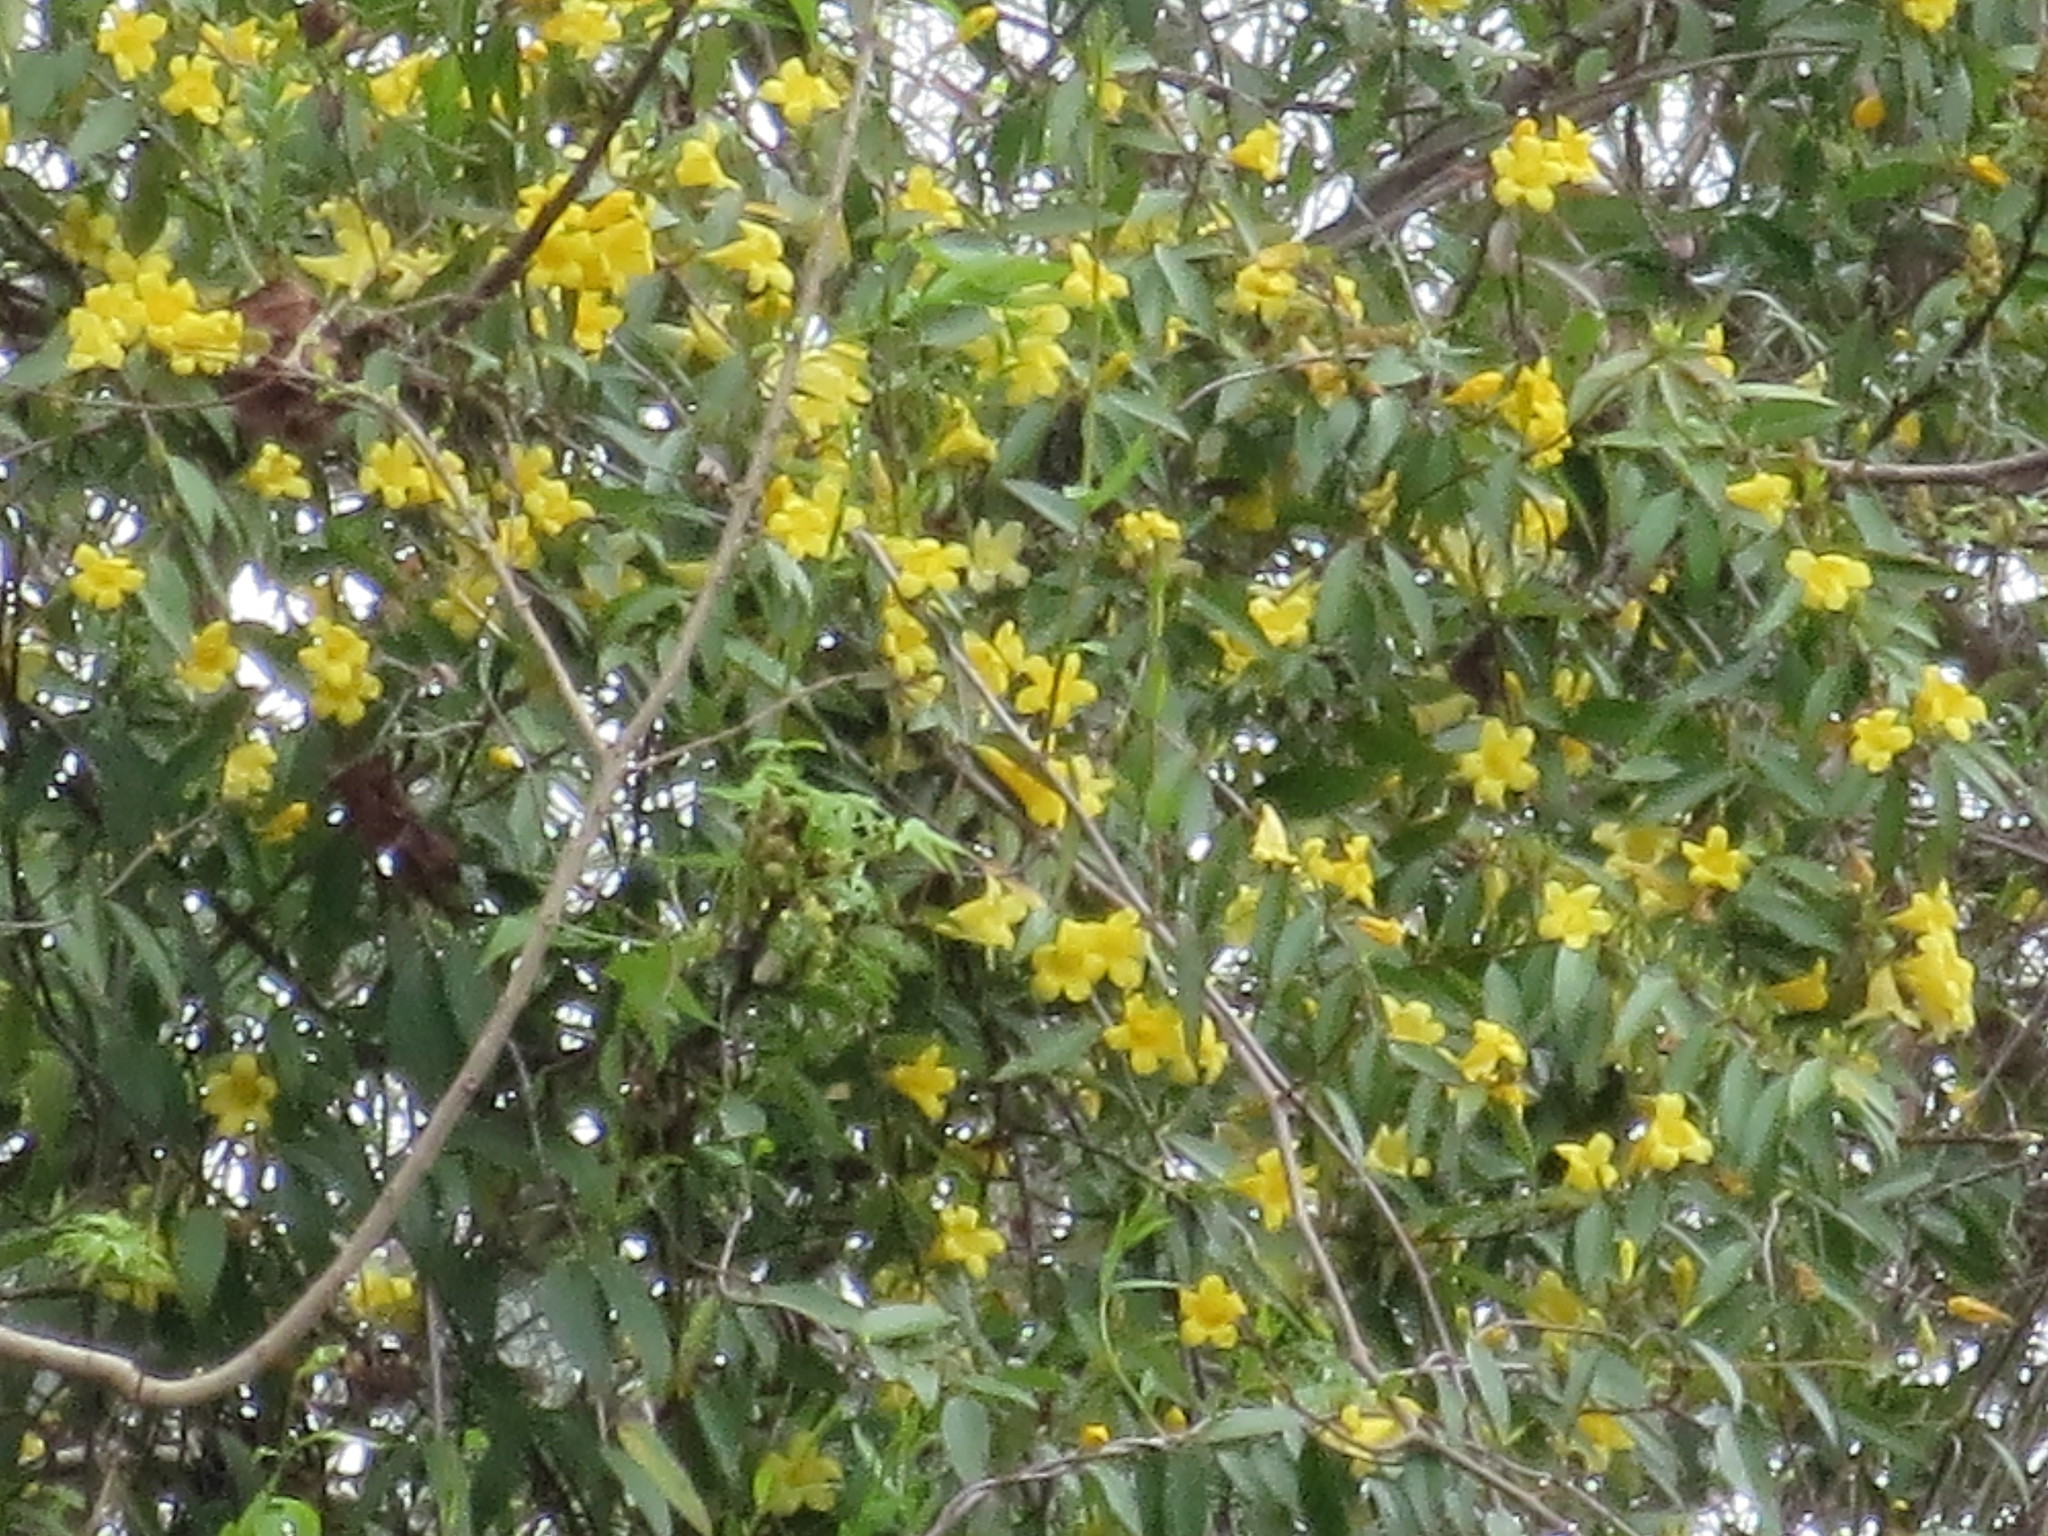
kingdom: Plantae
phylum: Tracheophyta
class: Magnoliopsida
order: Gentianales
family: Gelsemiaceae
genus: Gelsemium
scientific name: Gelsemium sempervirens
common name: Carolina-jasmine
